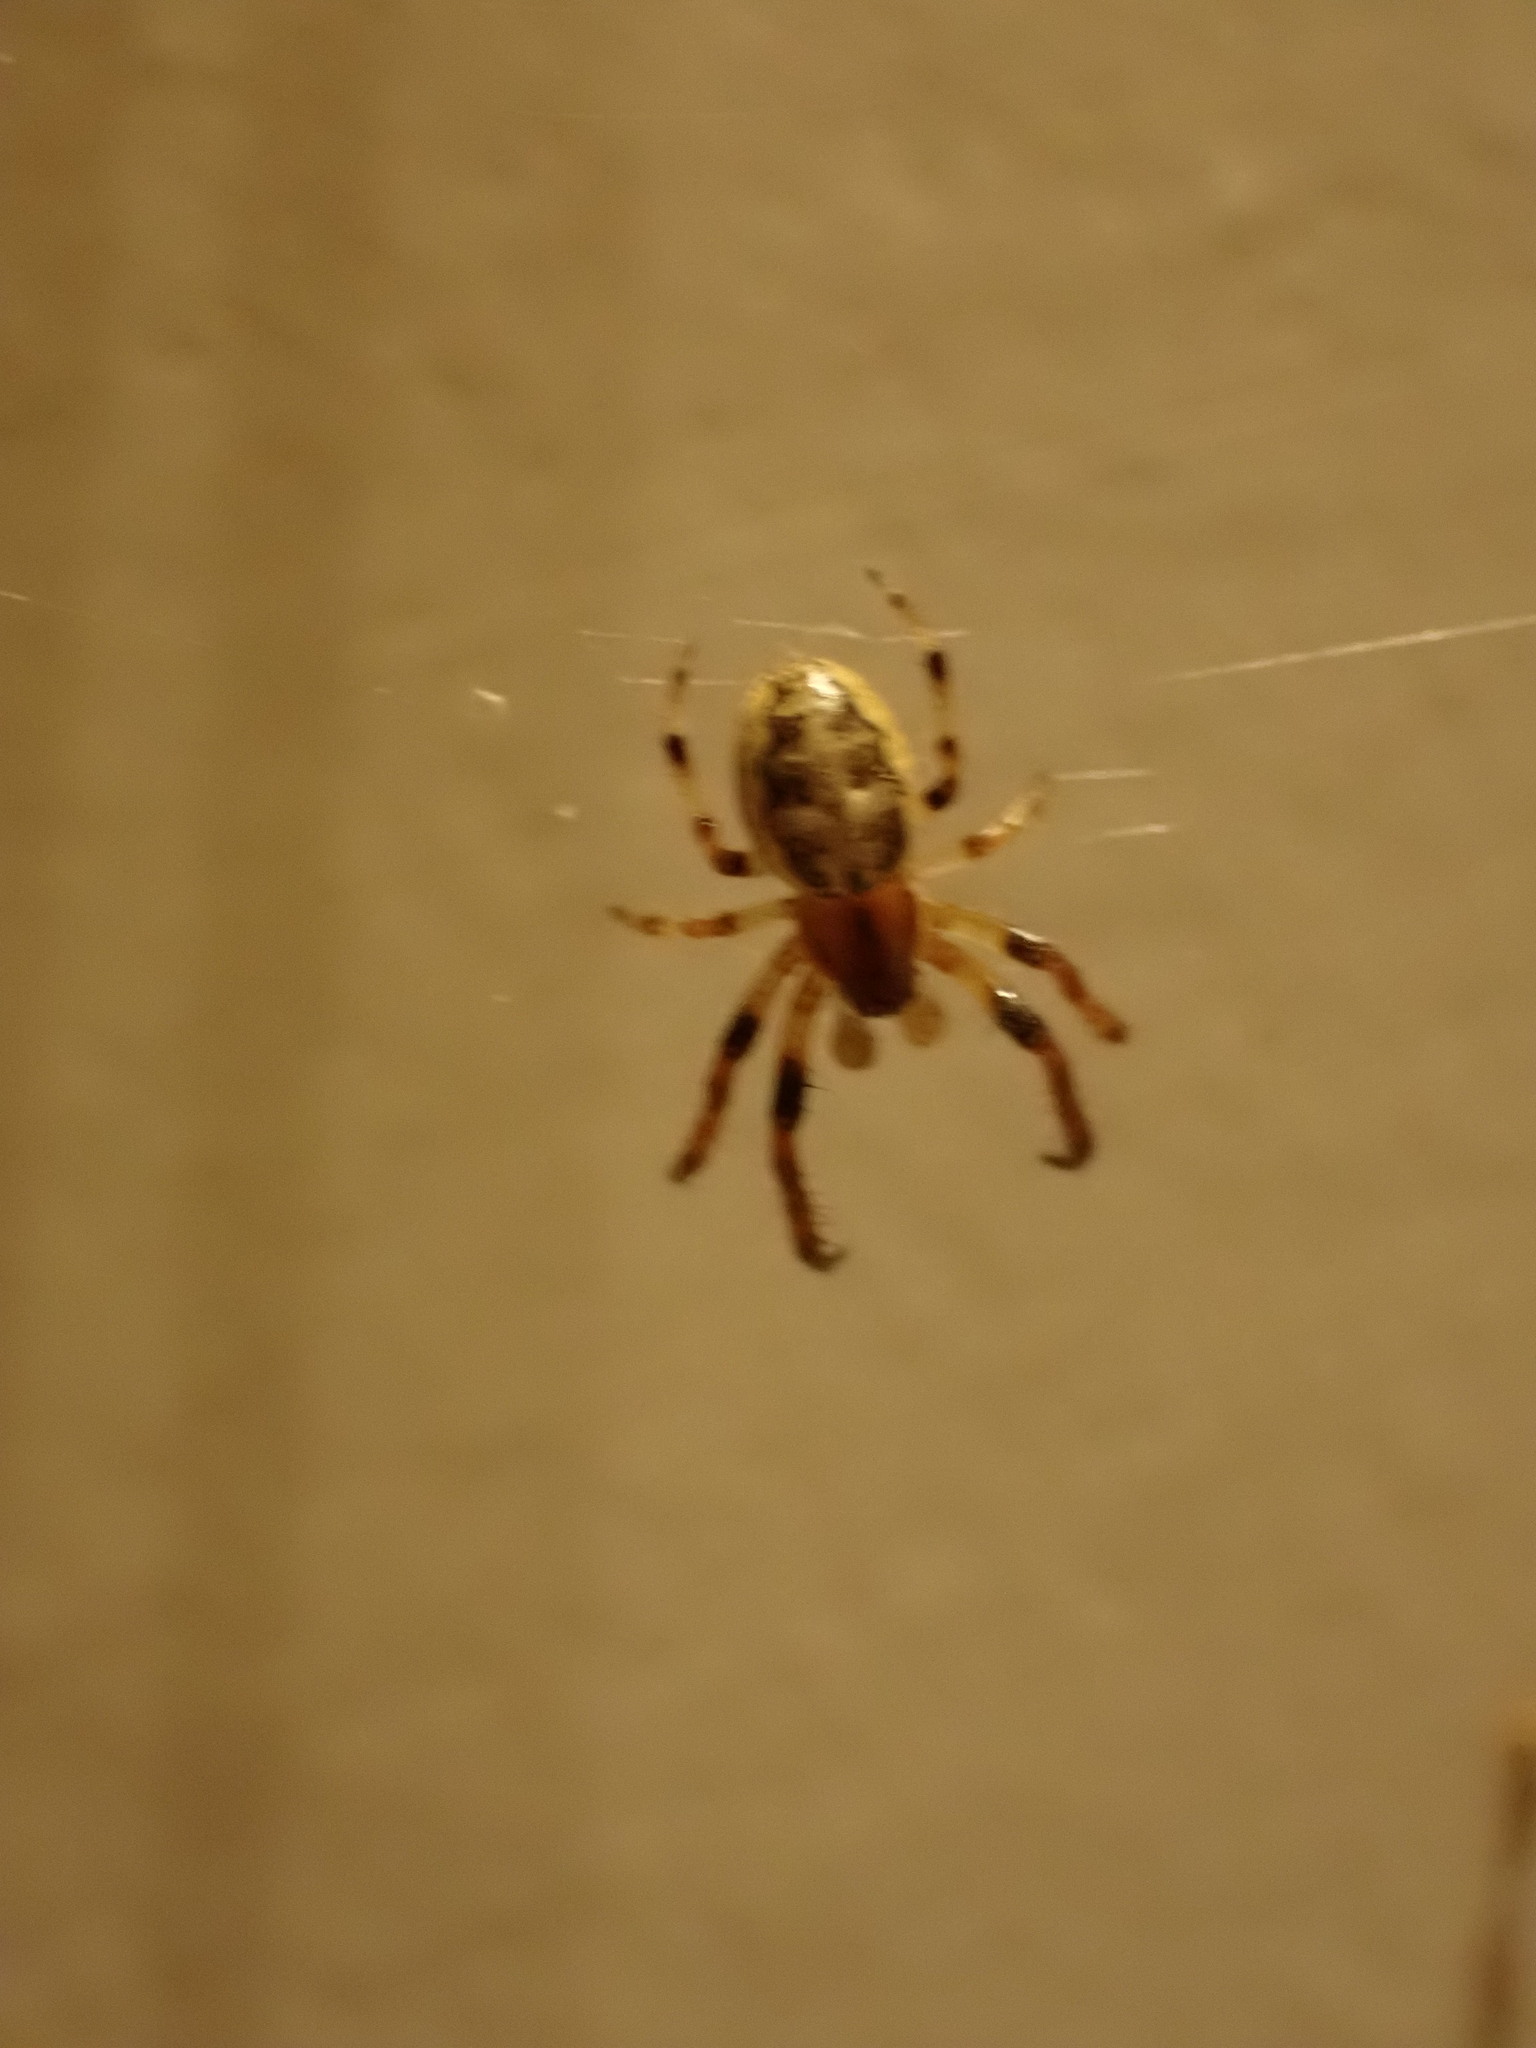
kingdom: Animalia
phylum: Arthropoda
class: Arachnida
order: Araneae
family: Araneidae
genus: Larinioides
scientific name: Larinioides cornutus
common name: Furrow orbweaver
